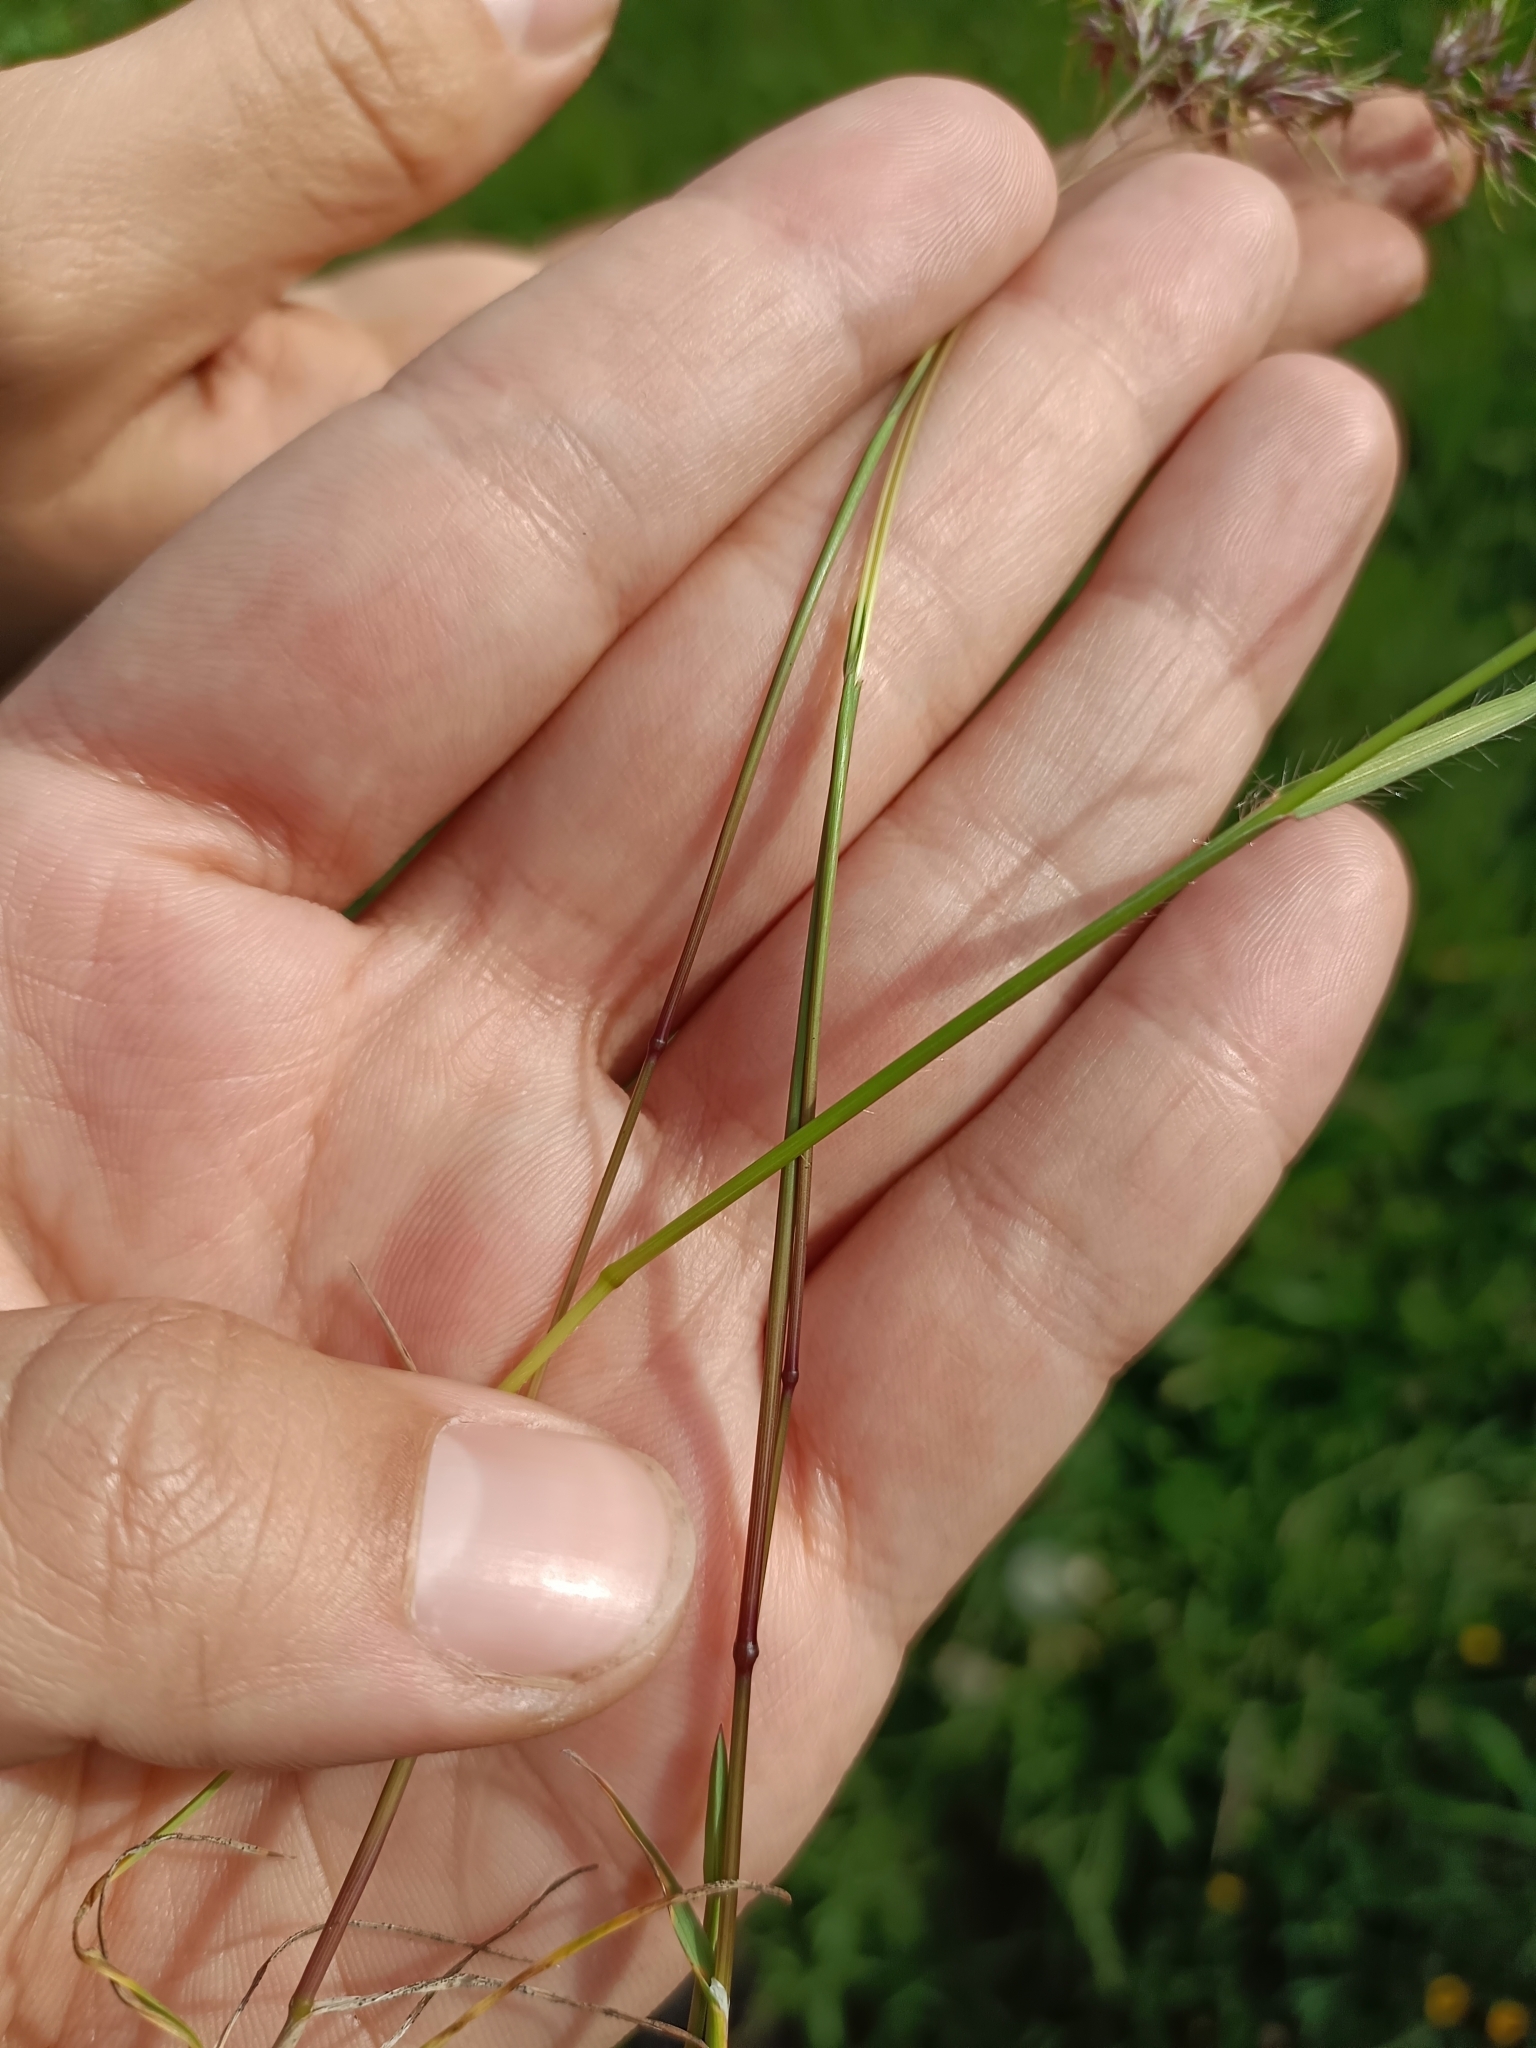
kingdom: Plantae
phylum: Tracheophyta
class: Liliopsida
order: Poales
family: Poaceae
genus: Poa
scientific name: Poa bulbosa
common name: Bulbous bluegrass
